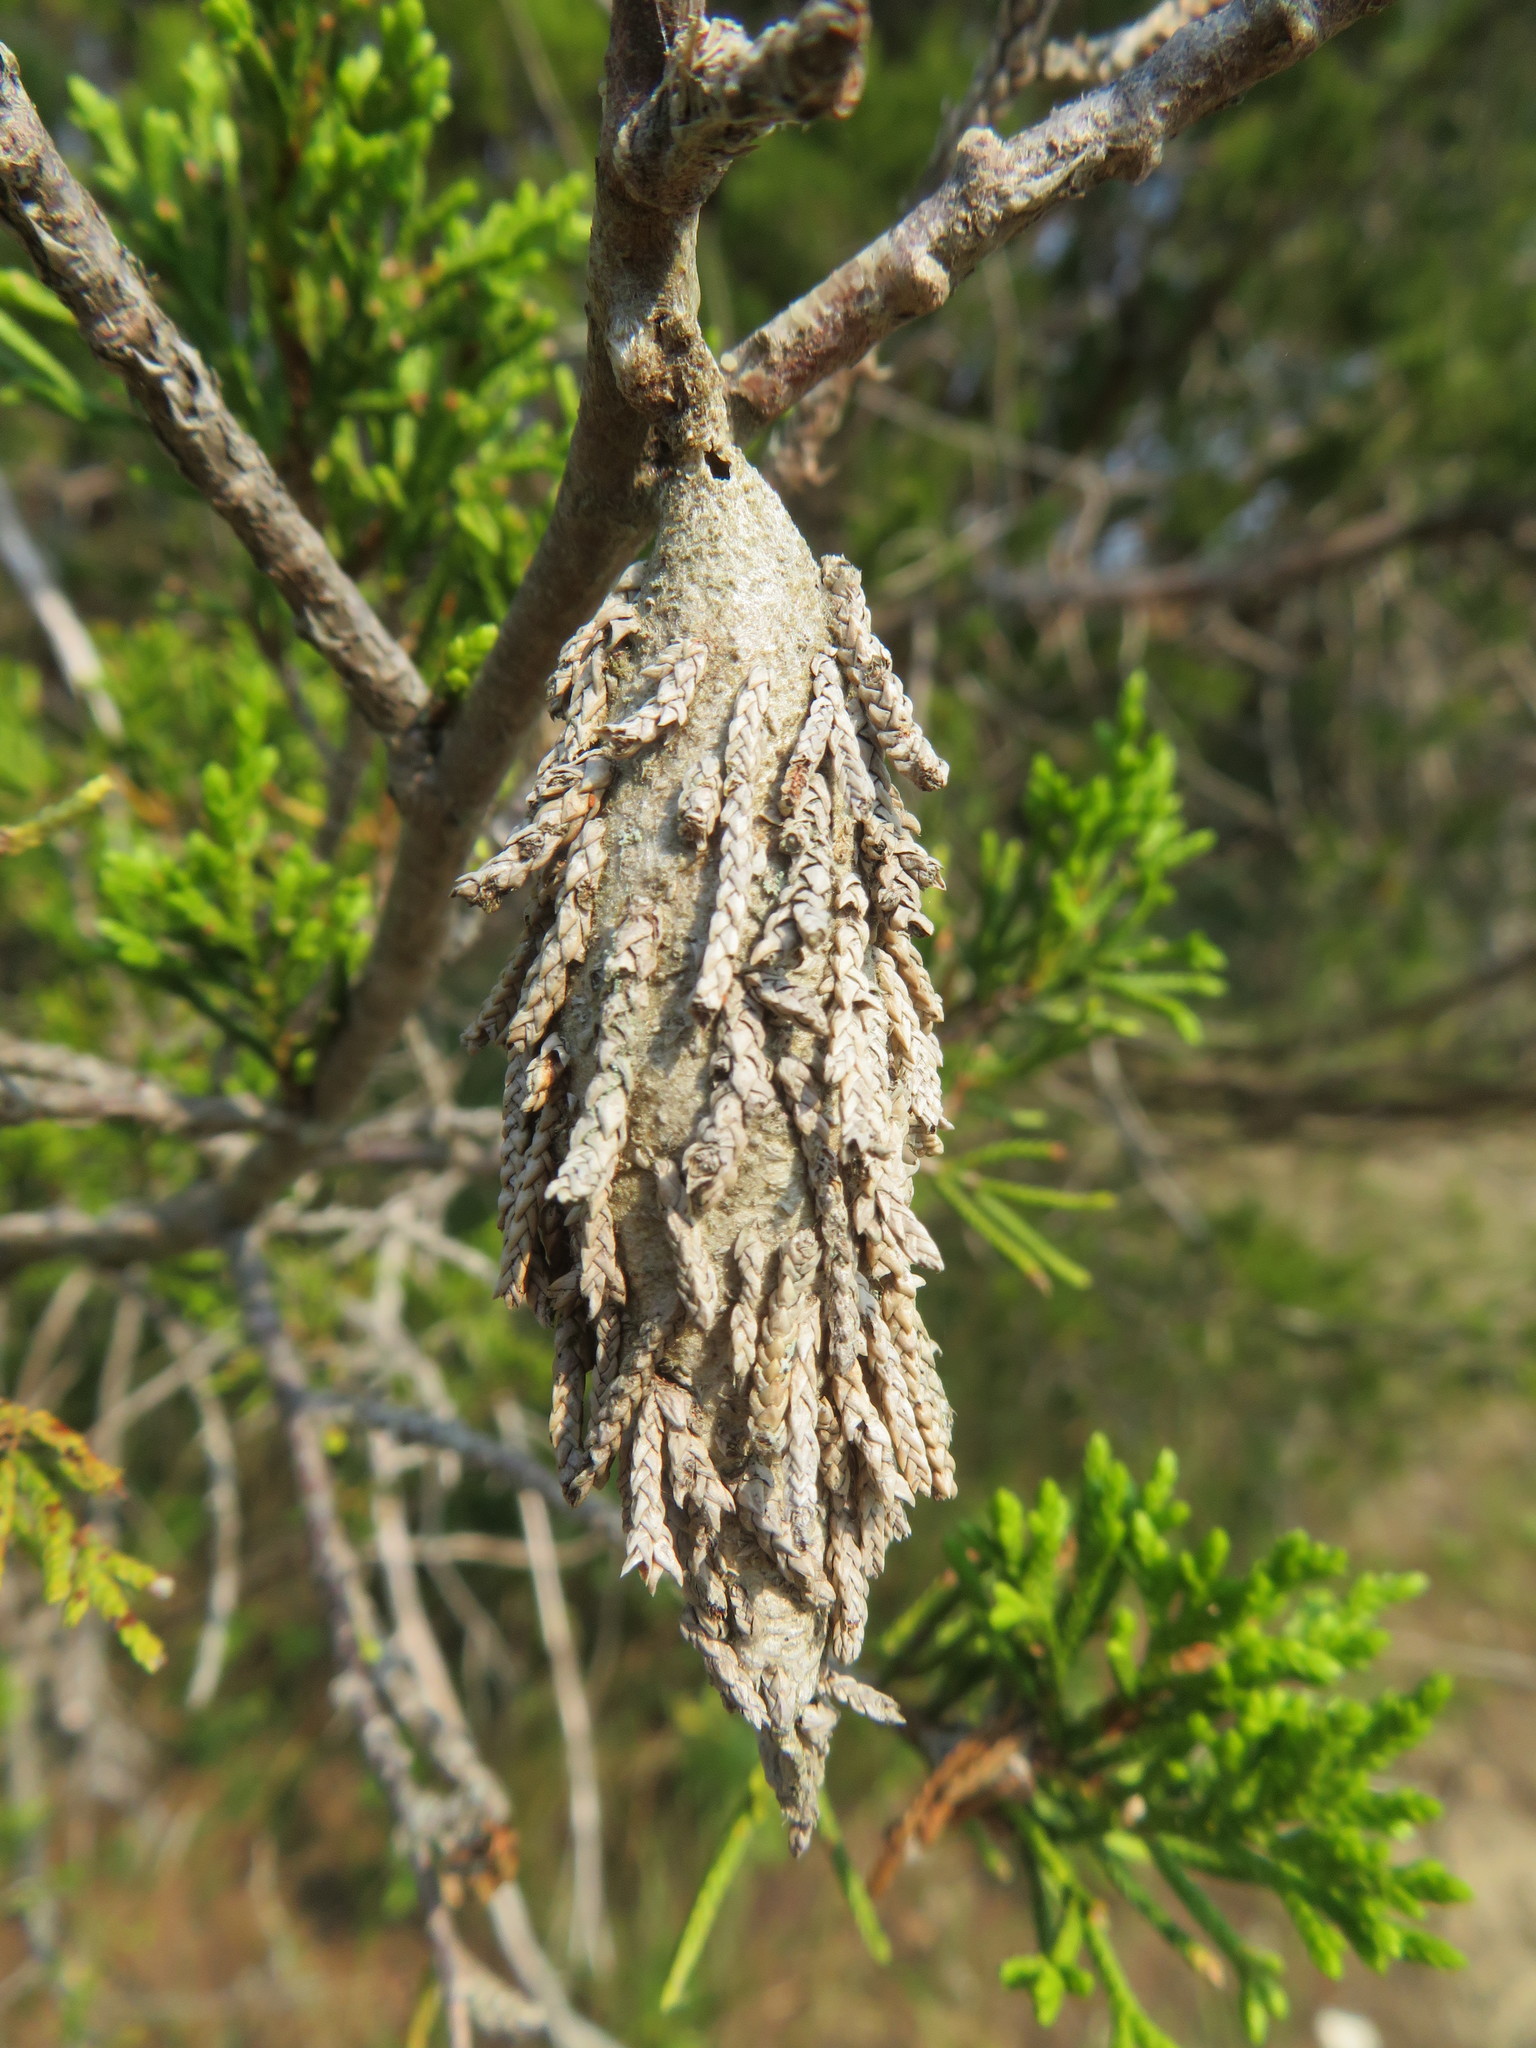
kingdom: Animalia
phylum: Arthropoda
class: Insecta
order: Lepidoptera
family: Psychidae
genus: Thyridopteryx
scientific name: Thyridopteryx ephemeraeformis
